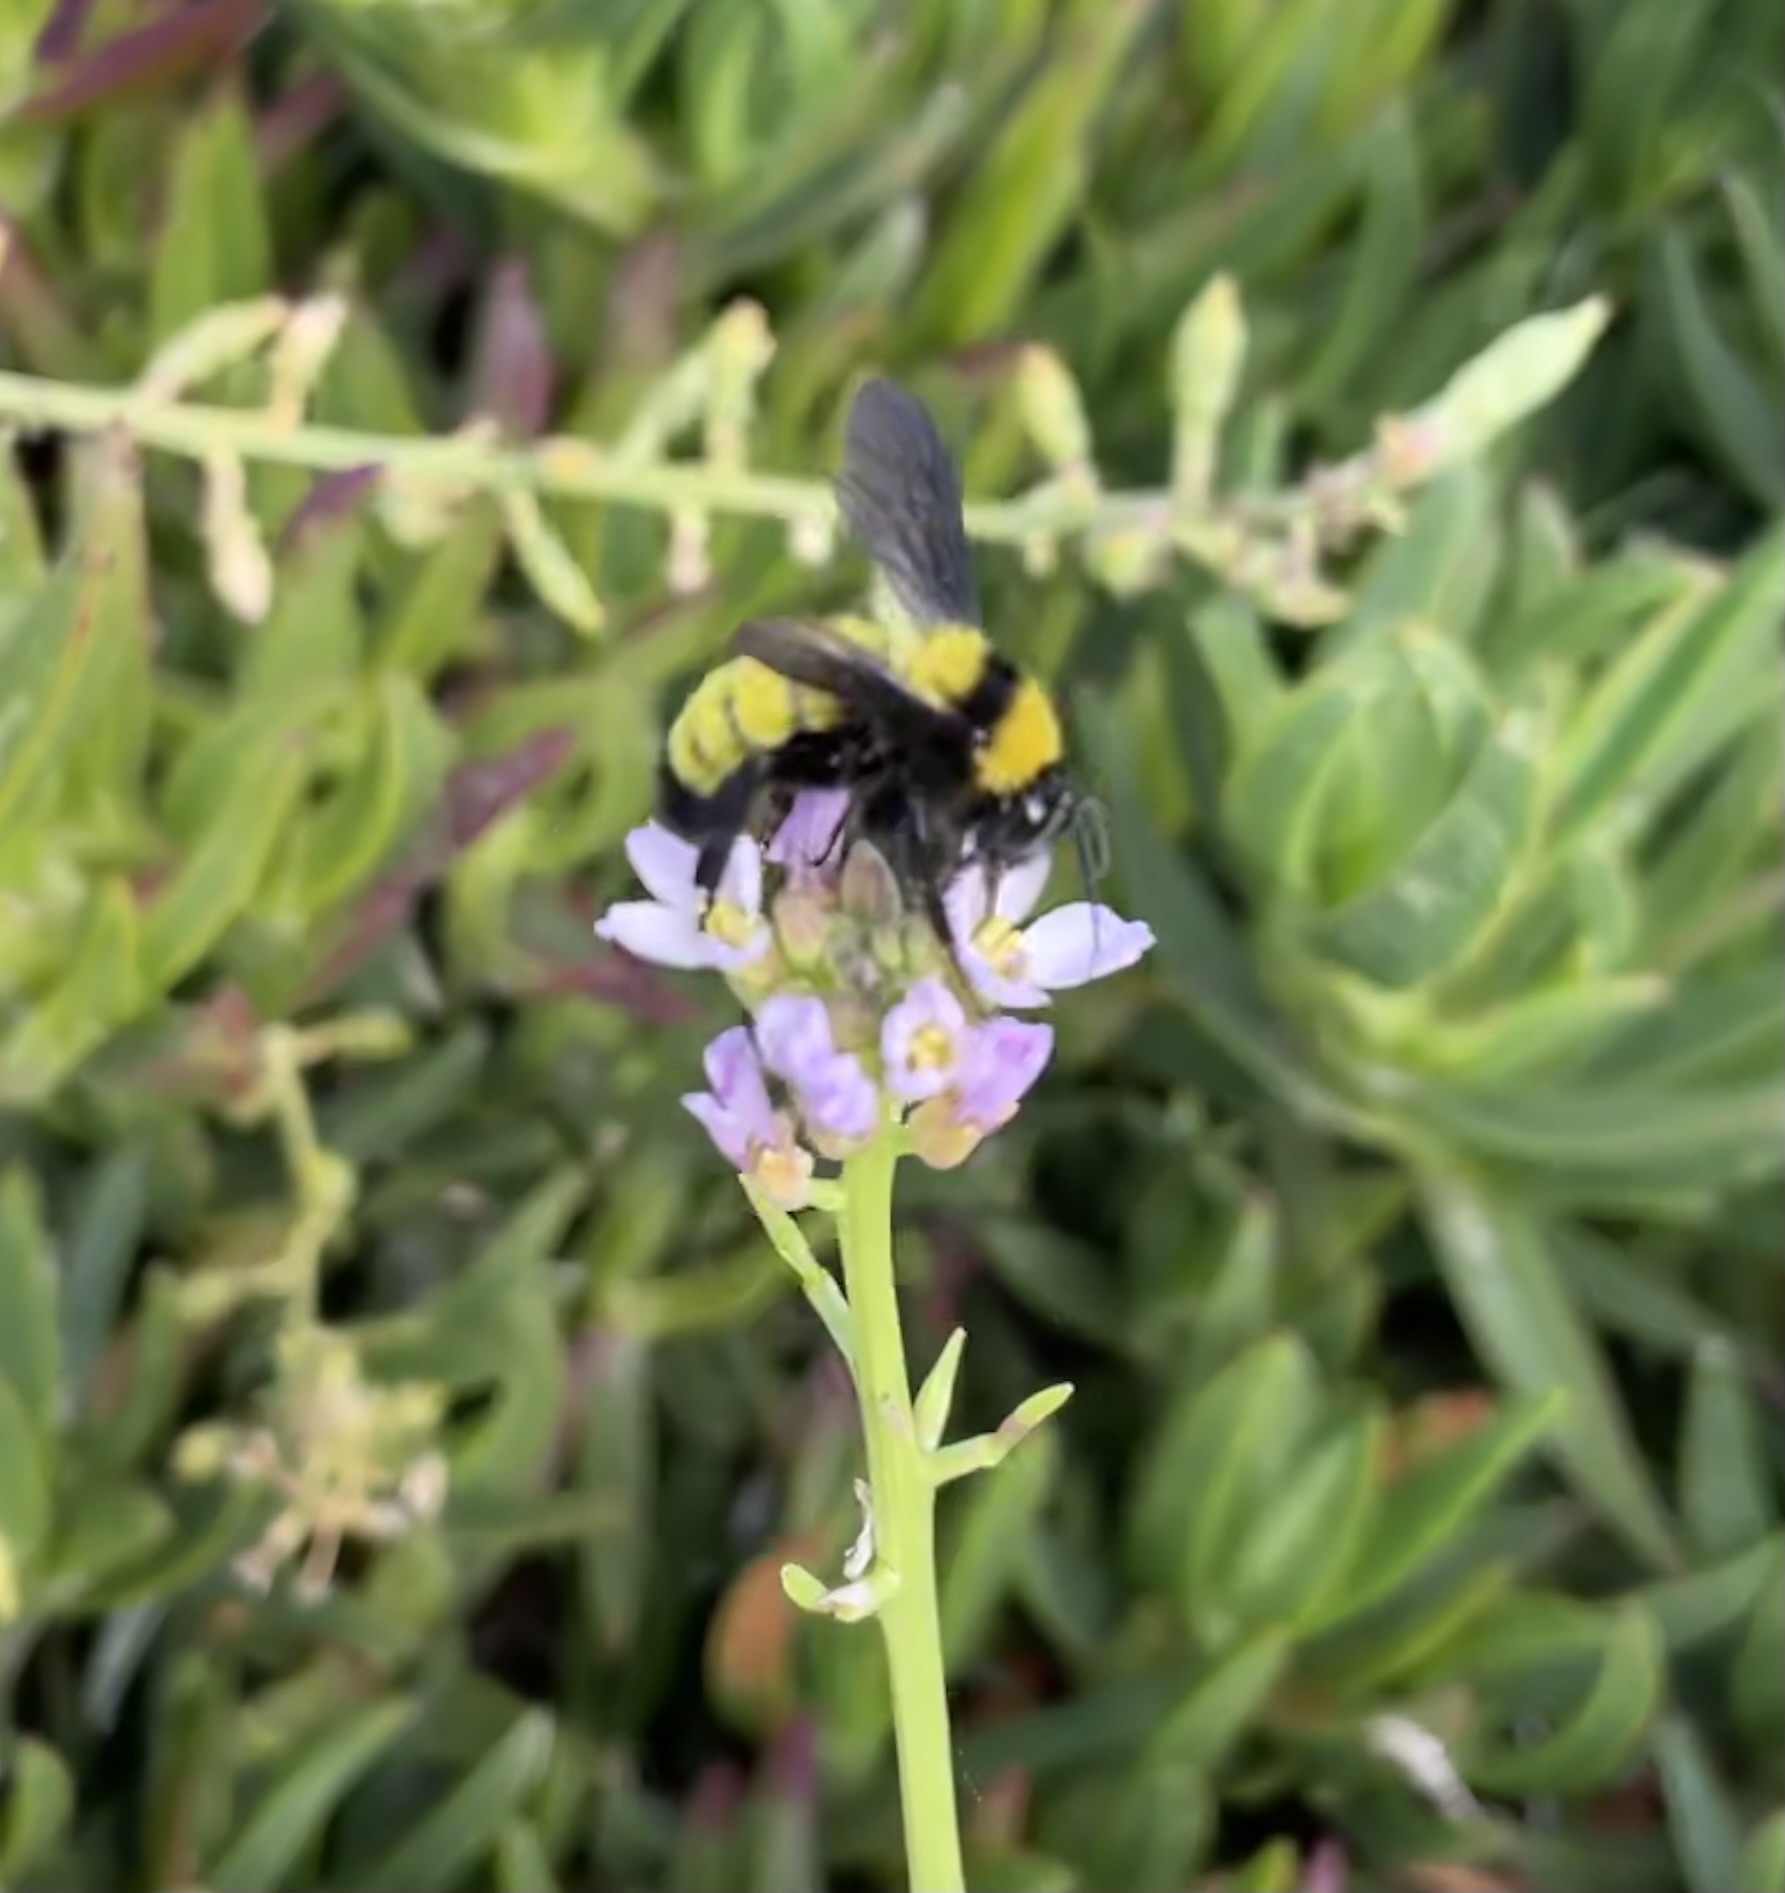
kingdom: Animalia
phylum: Arthropoda
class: Insecta
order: Hymenoptera
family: Apidae
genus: Bombus
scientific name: Bombus sonorus
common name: Sonoran bumble bee
